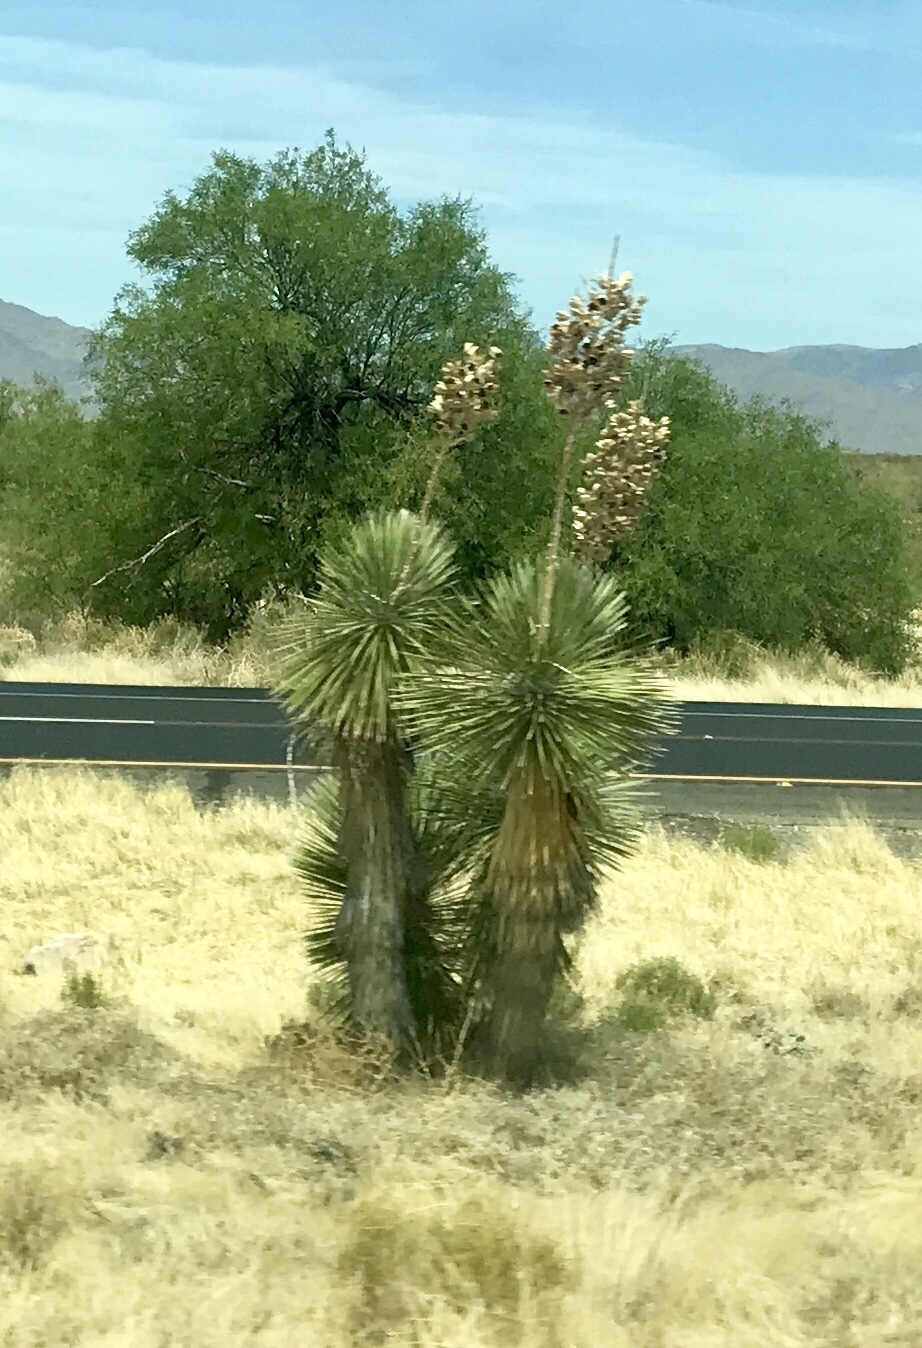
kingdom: Plantae
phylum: Tracheophyta
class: Liliopsida
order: Asparagales
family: Asparagaceae
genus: Yucca
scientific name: Yucca elata
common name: Palmella
